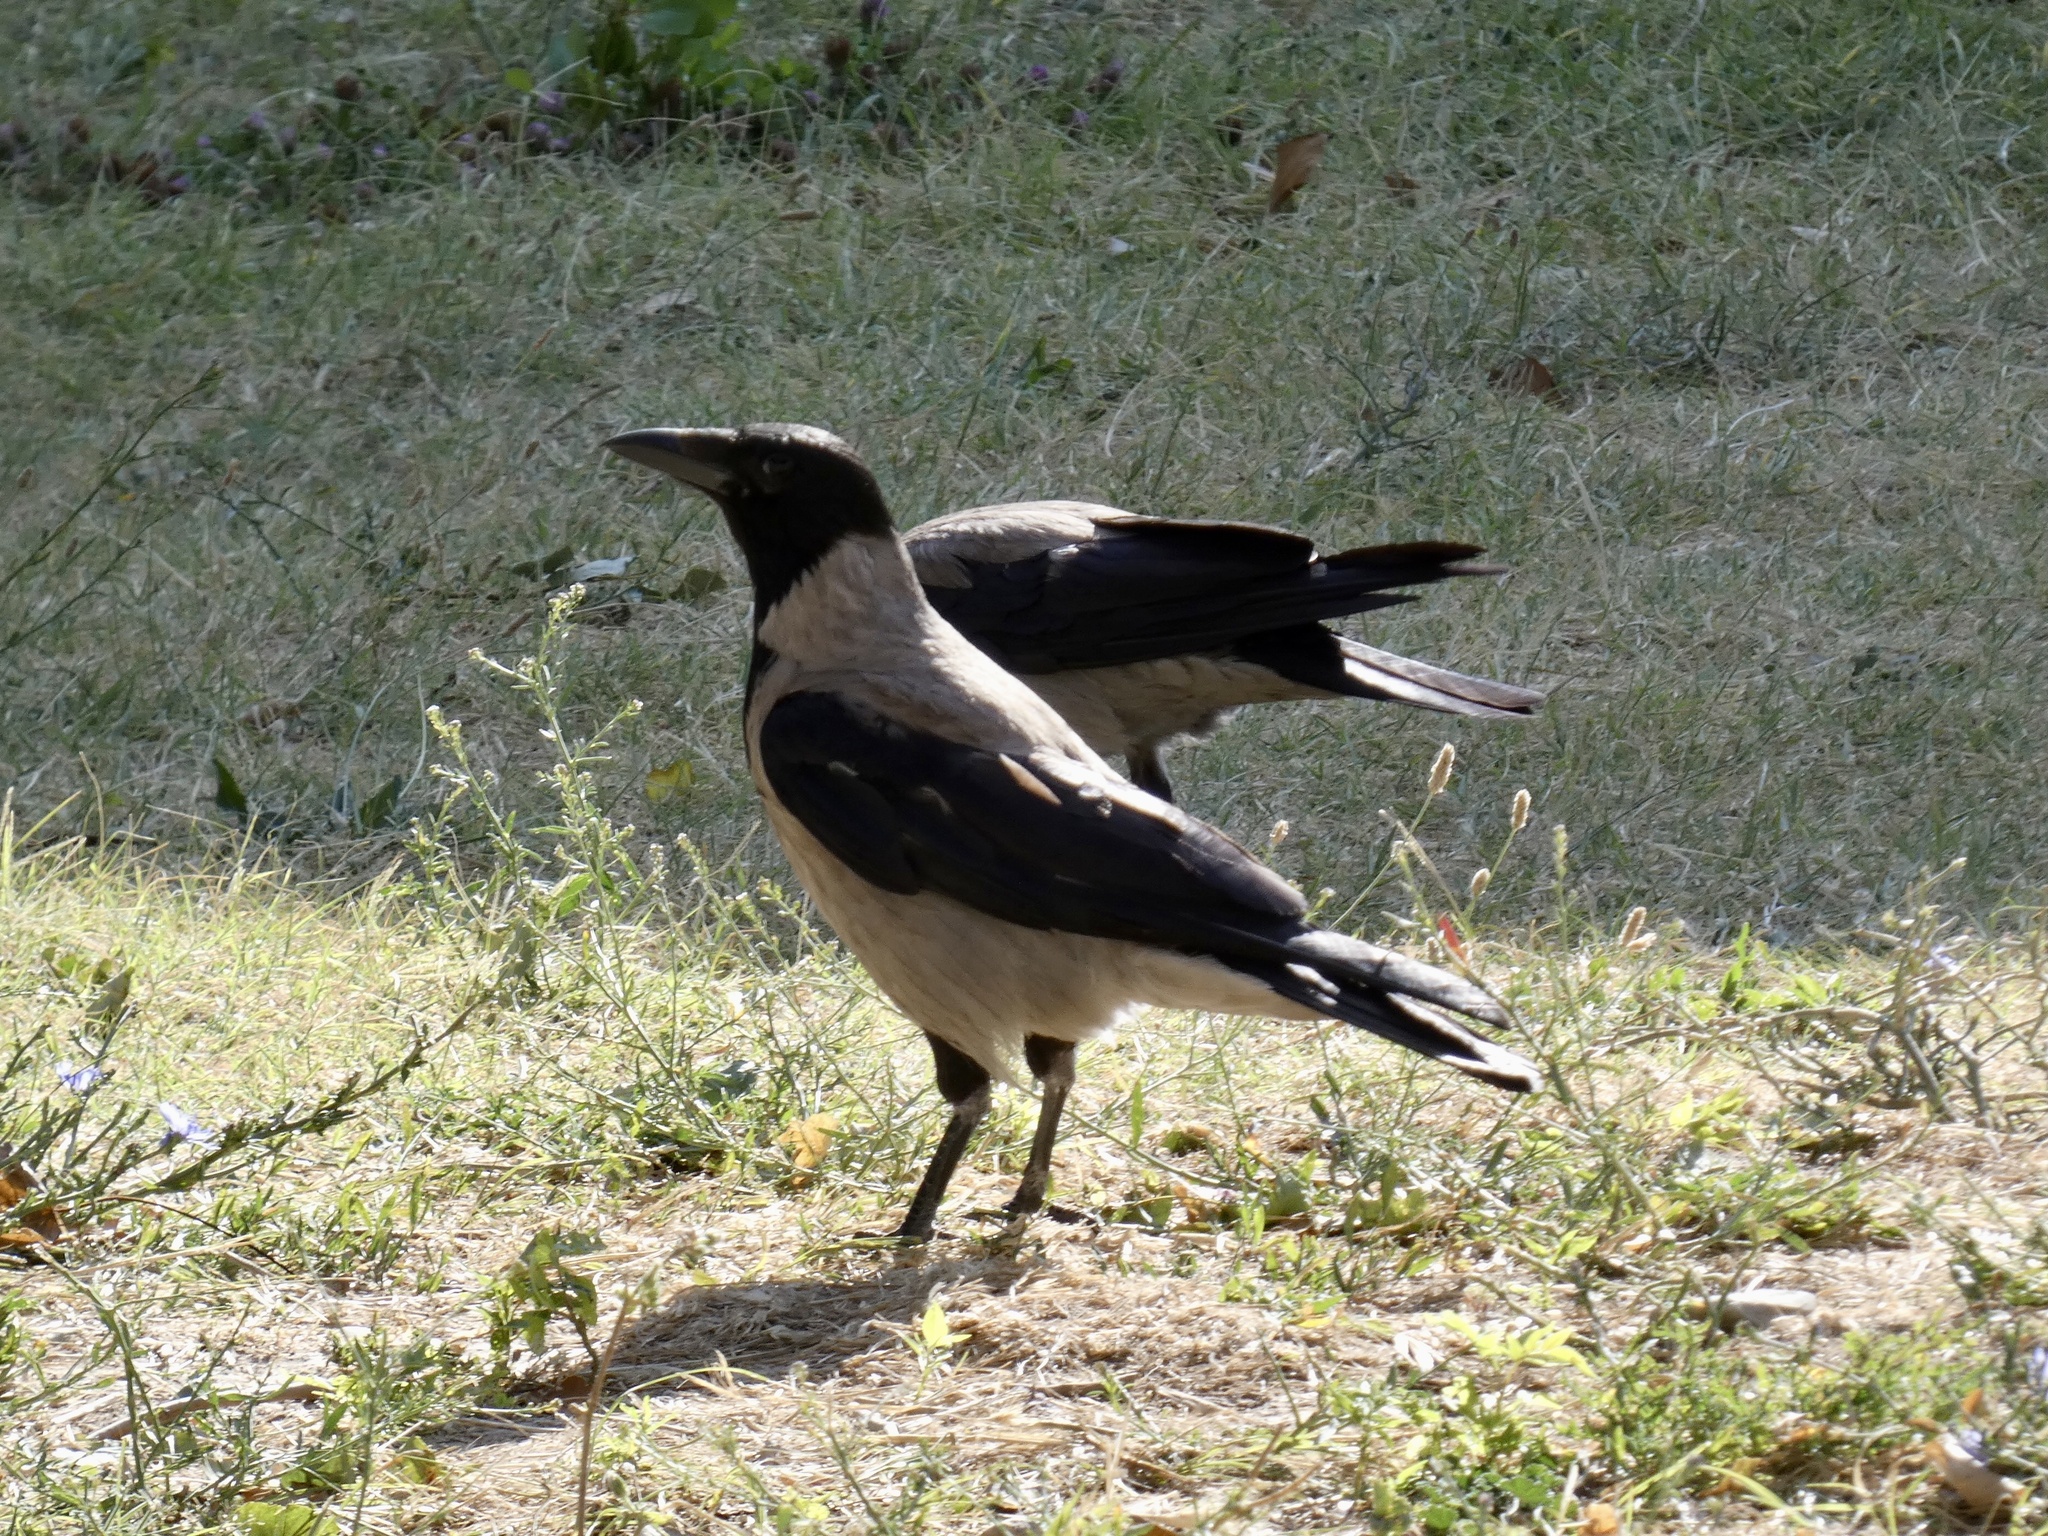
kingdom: Animalia
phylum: Chordata
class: Aves
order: Passeriformes
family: Corvidae
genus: Corvus
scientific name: Corvus cornix
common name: Hooded crow
